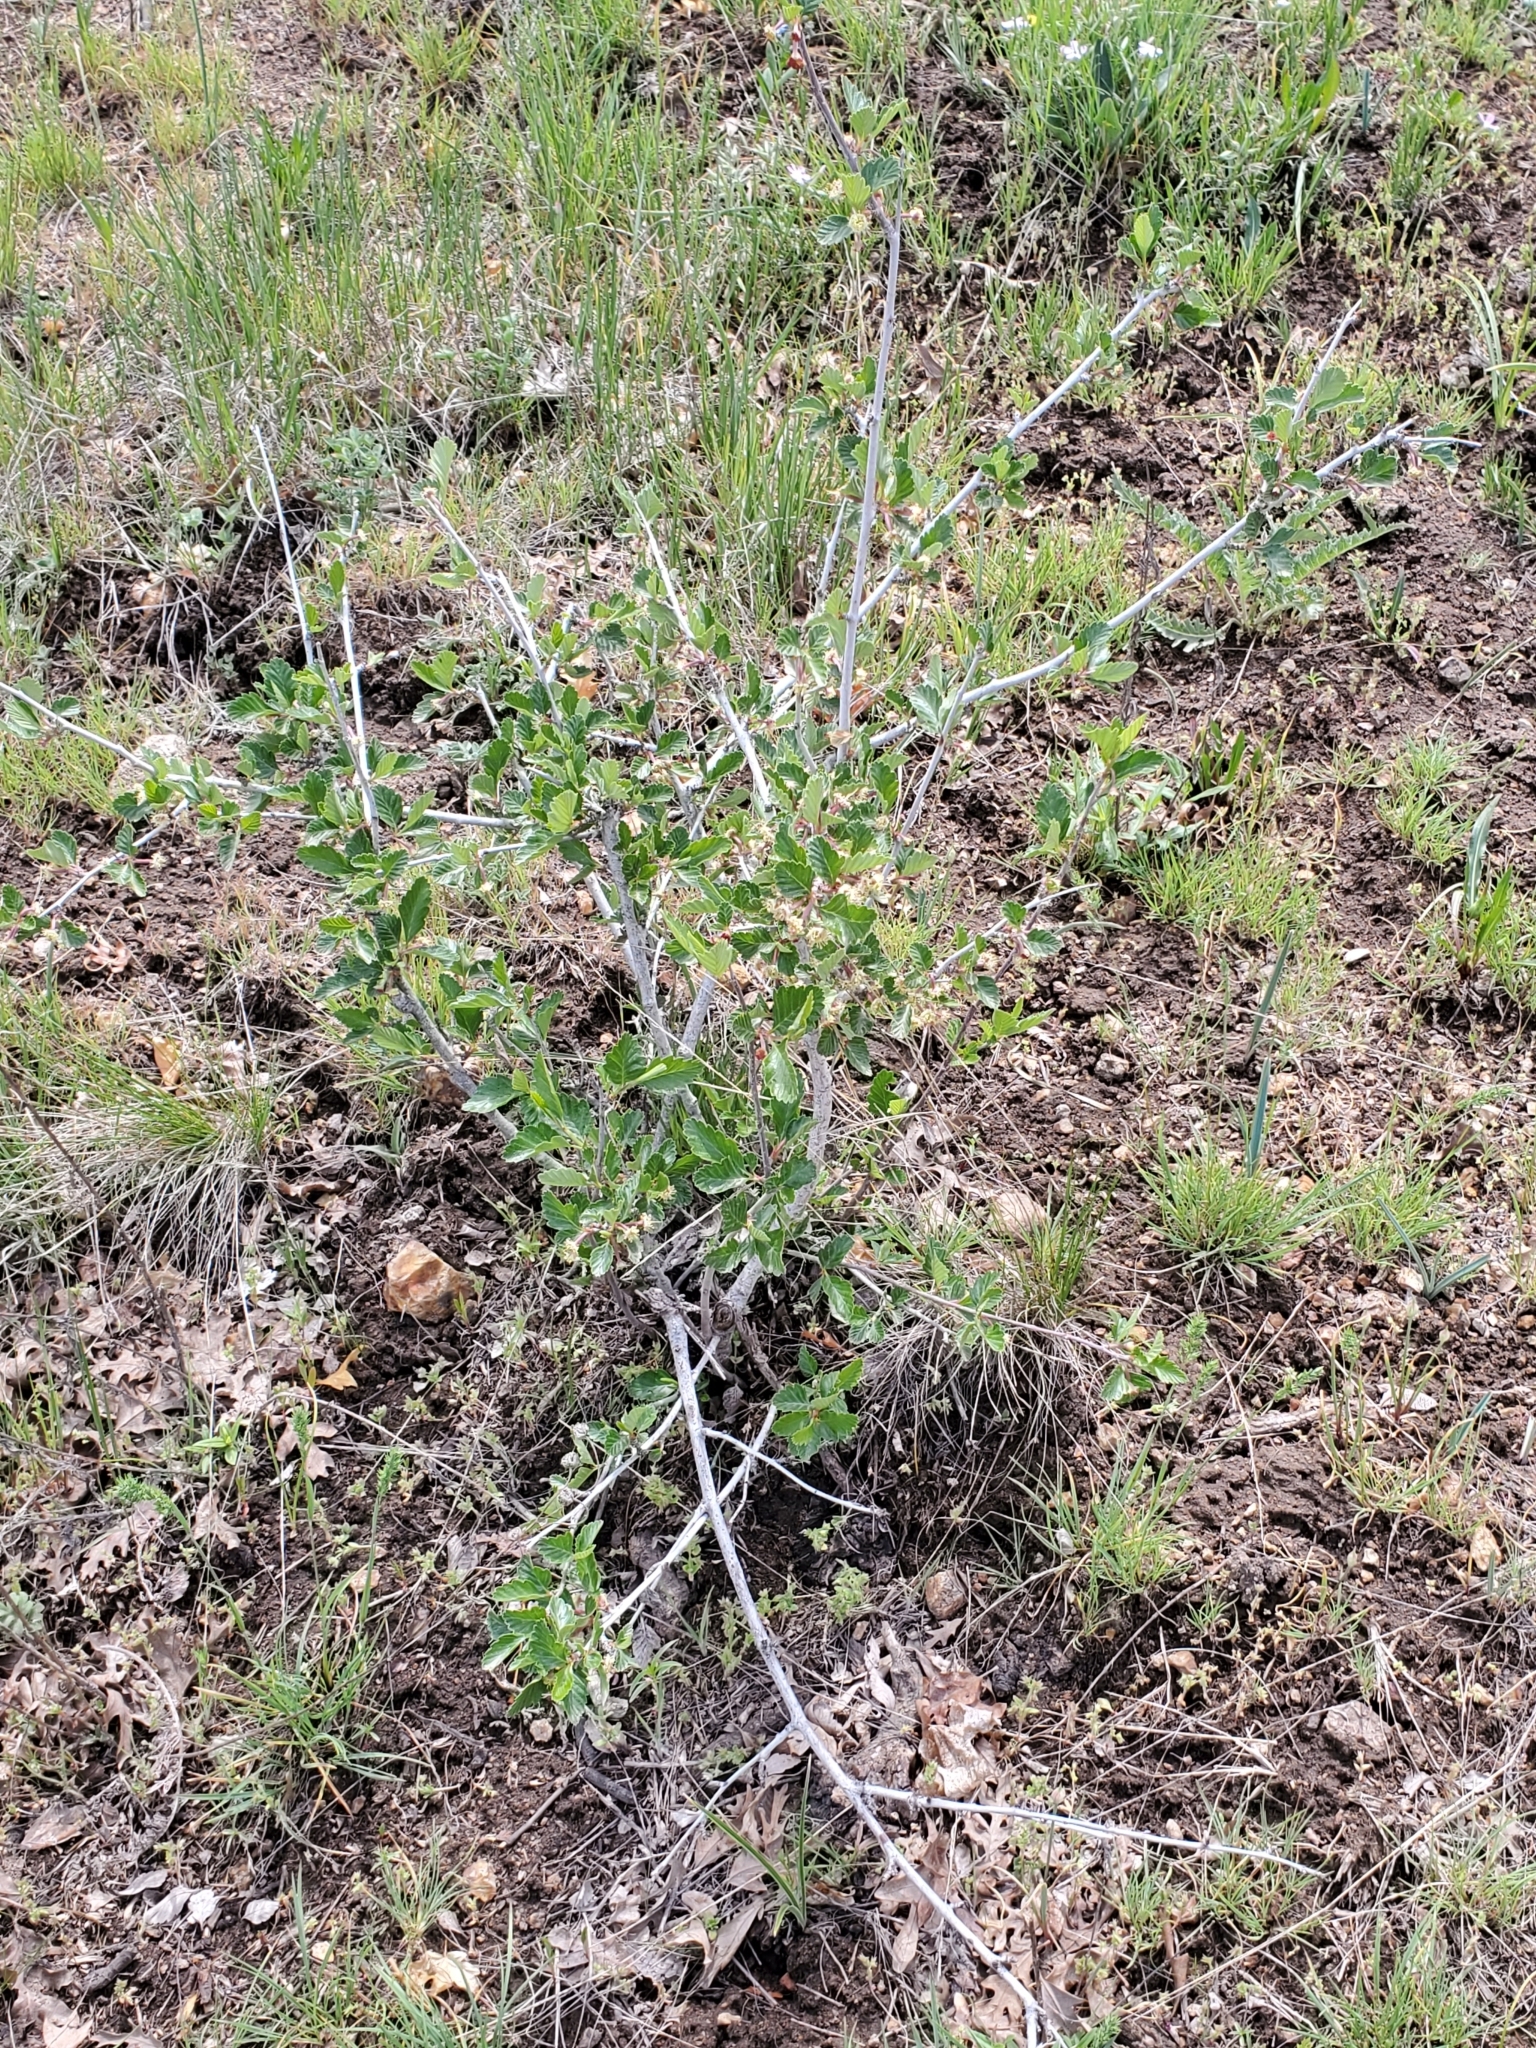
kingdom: Plantae
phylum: Tracheophyta
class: Magnoliopsida
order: Rosales
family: Rosaceae
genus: Cercocarpus
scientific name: Cercocarpus montanus
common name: Alder-leaf cercocarpus
